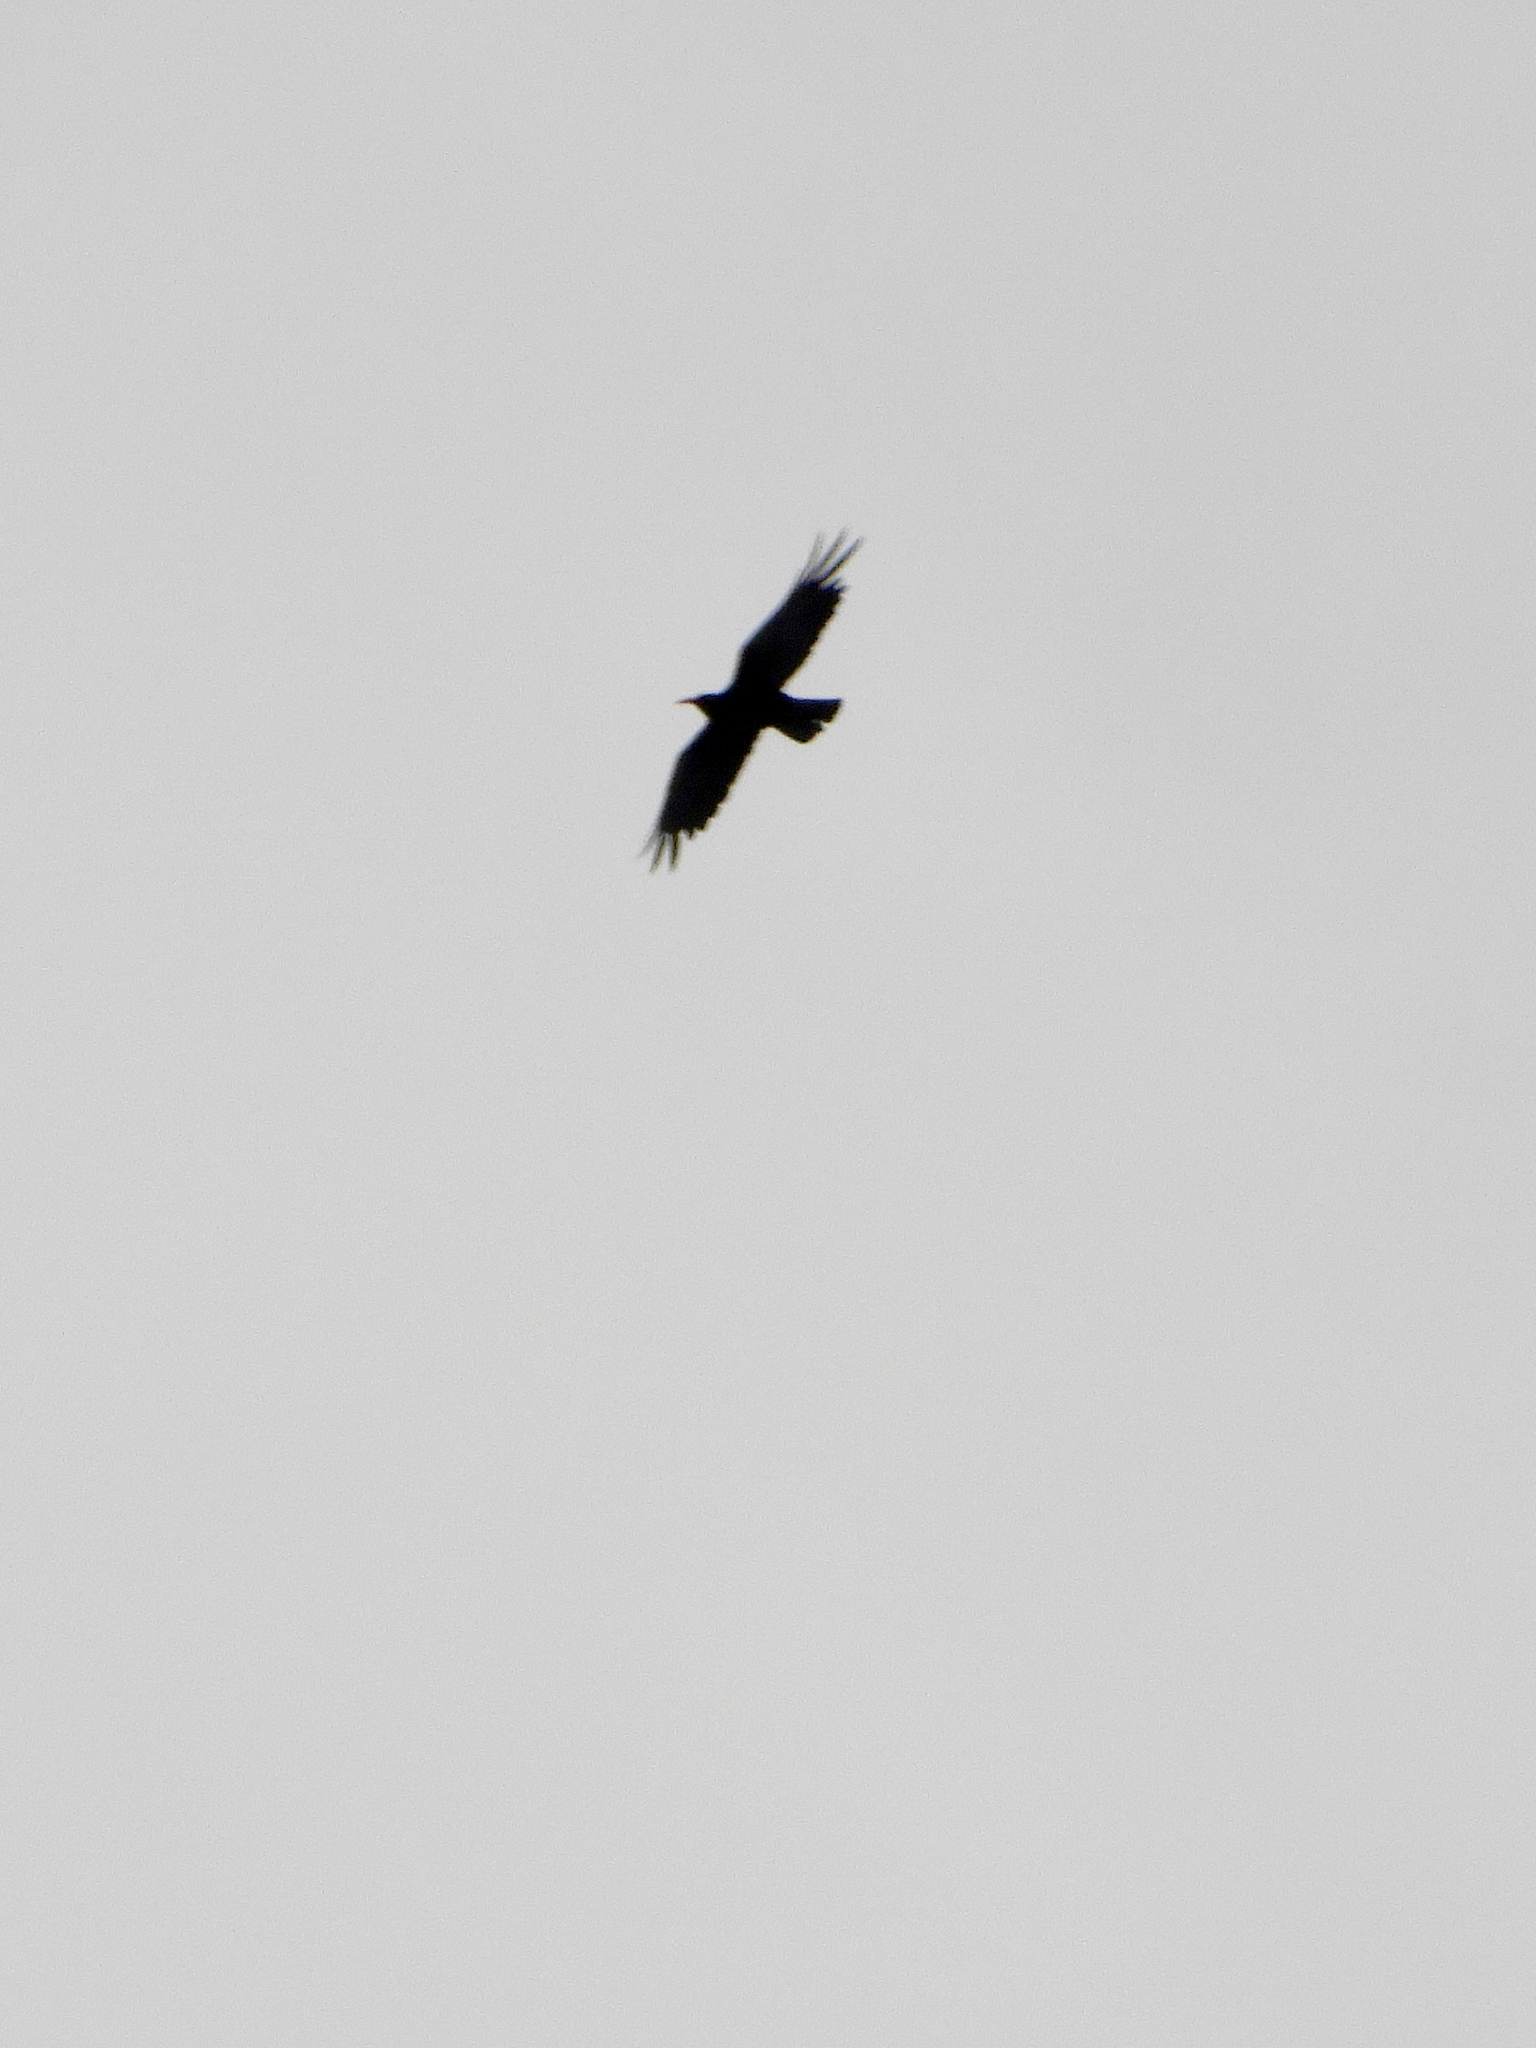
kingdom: Animalia
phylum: Chordata
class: Aves
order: Passeriformes
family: Corvidae
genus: Pyrrhocorax
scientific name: Pyrrhocorax pyrrhocorax
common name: Red-billed chough
